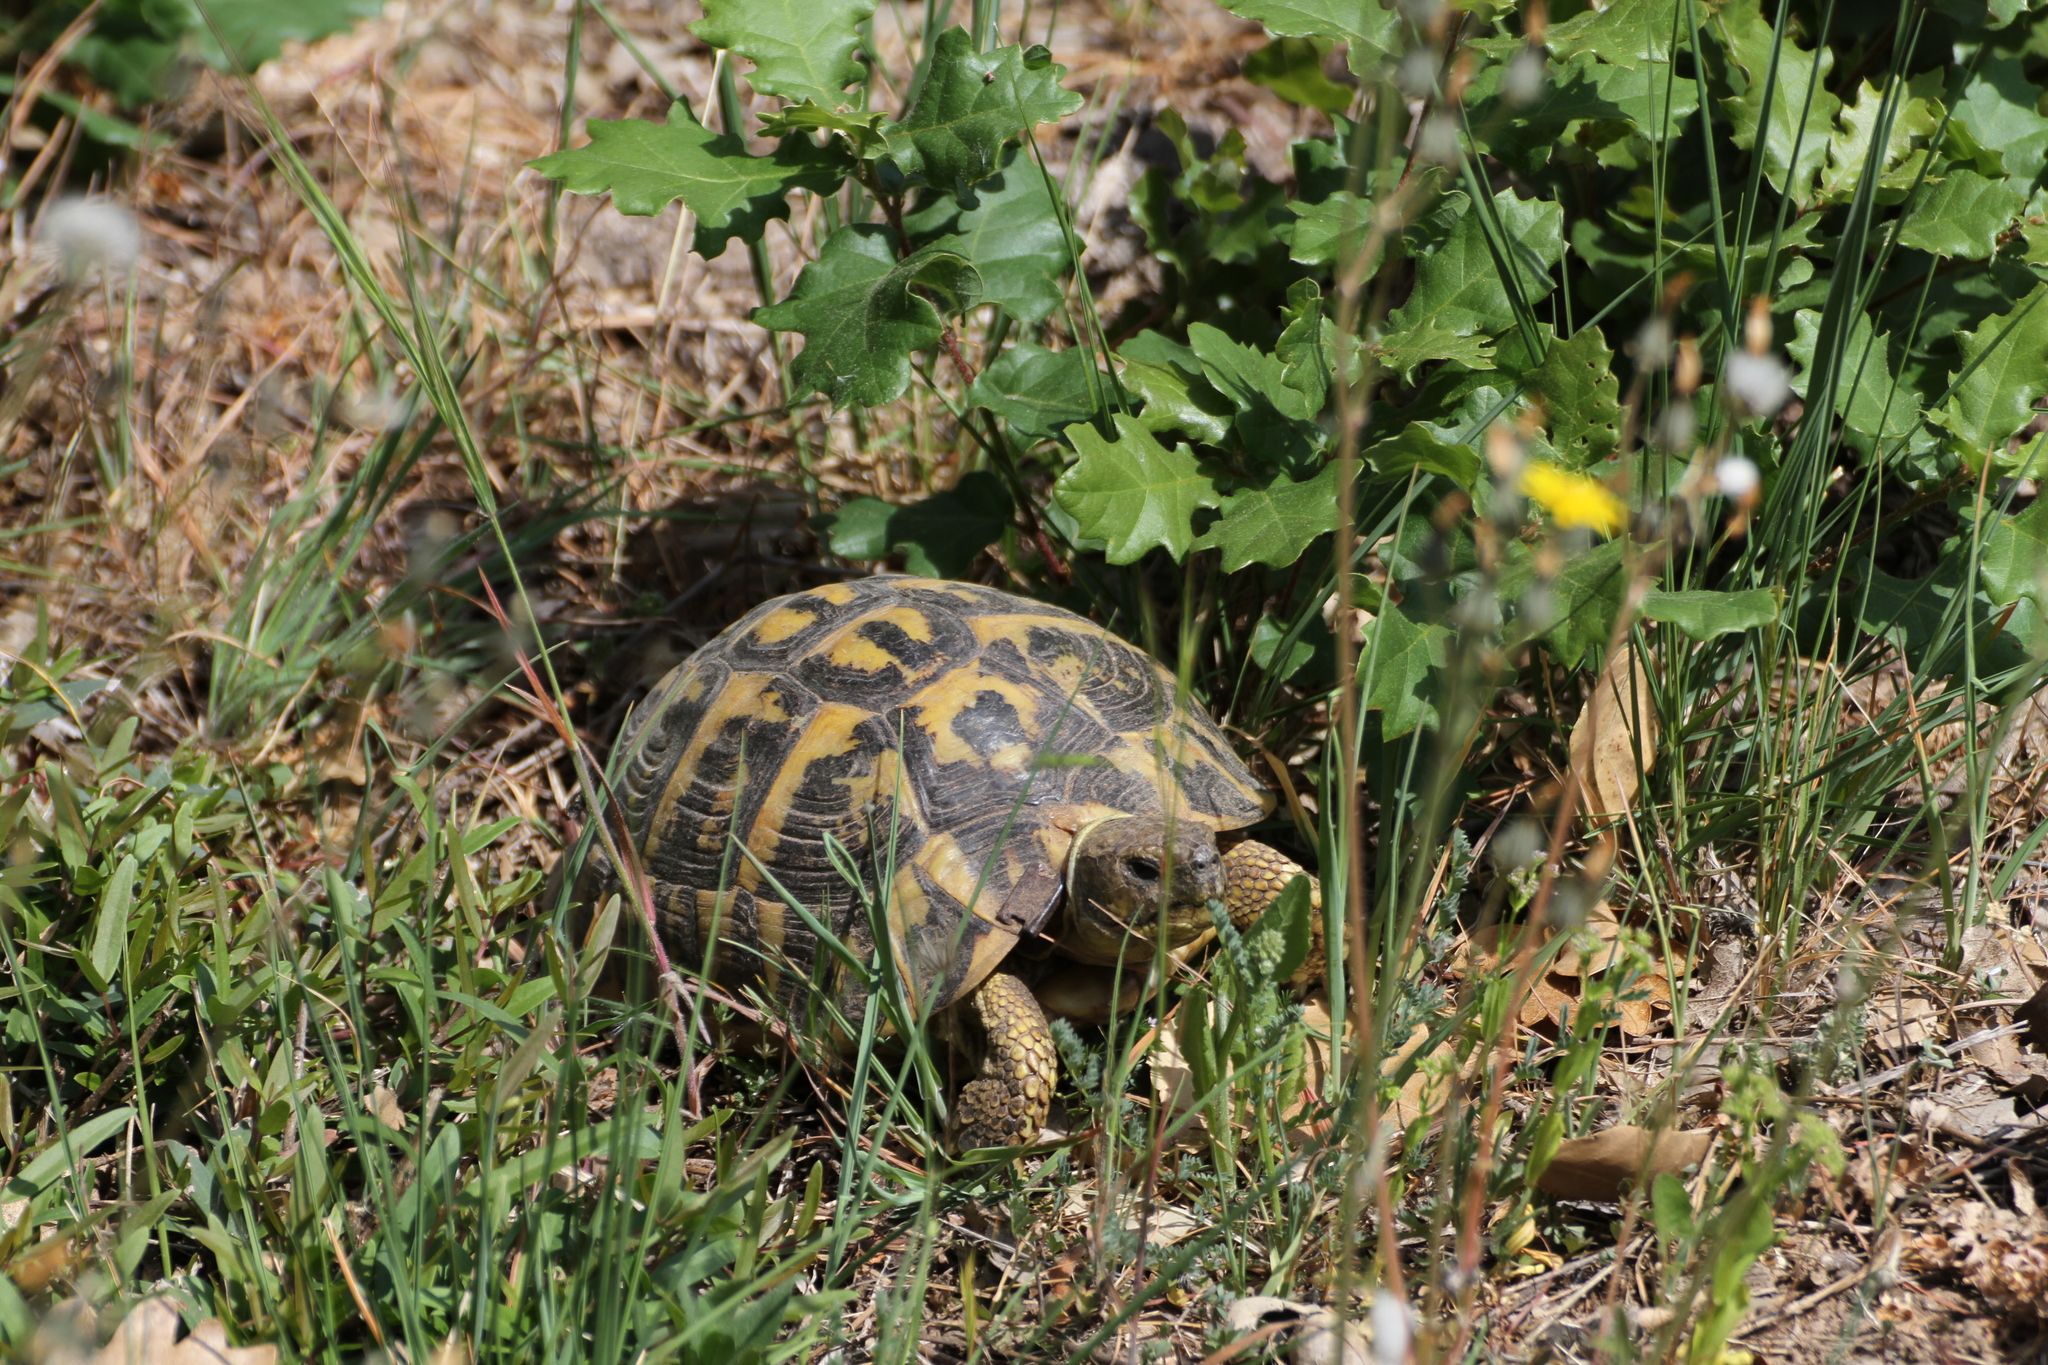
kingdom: Animalia
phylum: Chordata
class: Testudines
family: Testudinidae
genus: Testudo
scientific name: Testudo hermanni
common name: Hermann's tortoise
